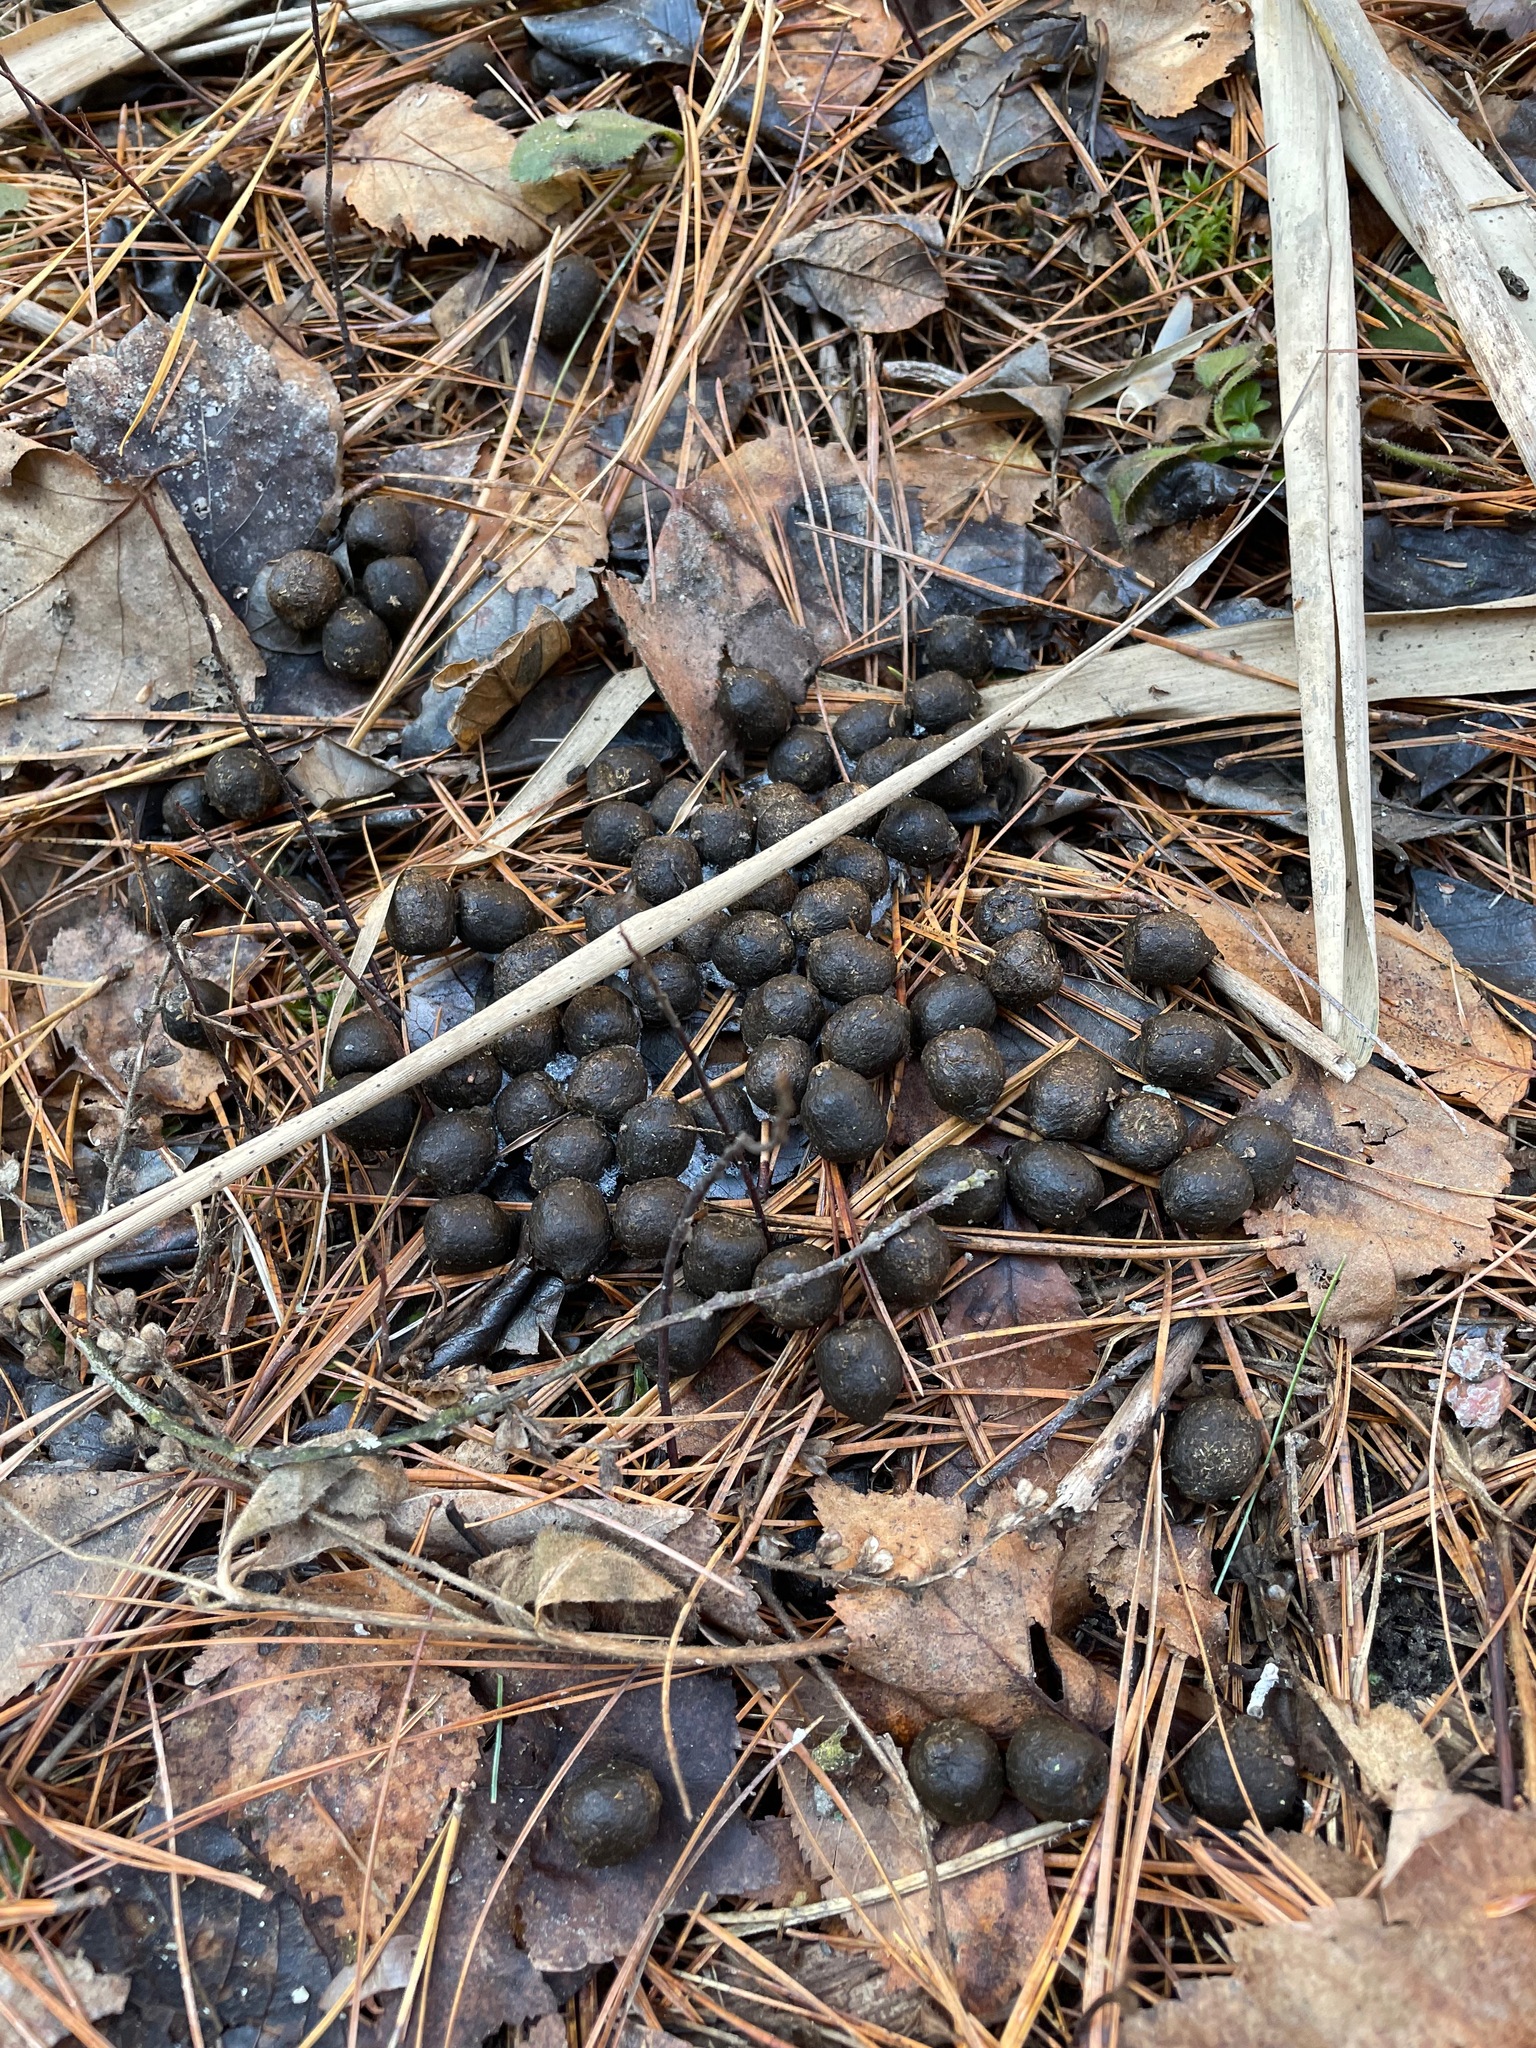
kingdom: Animalia
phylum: Chordata
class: Mammalia
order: Artiodactyla
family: Cervidae
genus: Odocoileus
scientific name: Odocoileus virginianus
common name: White-tailed deer
